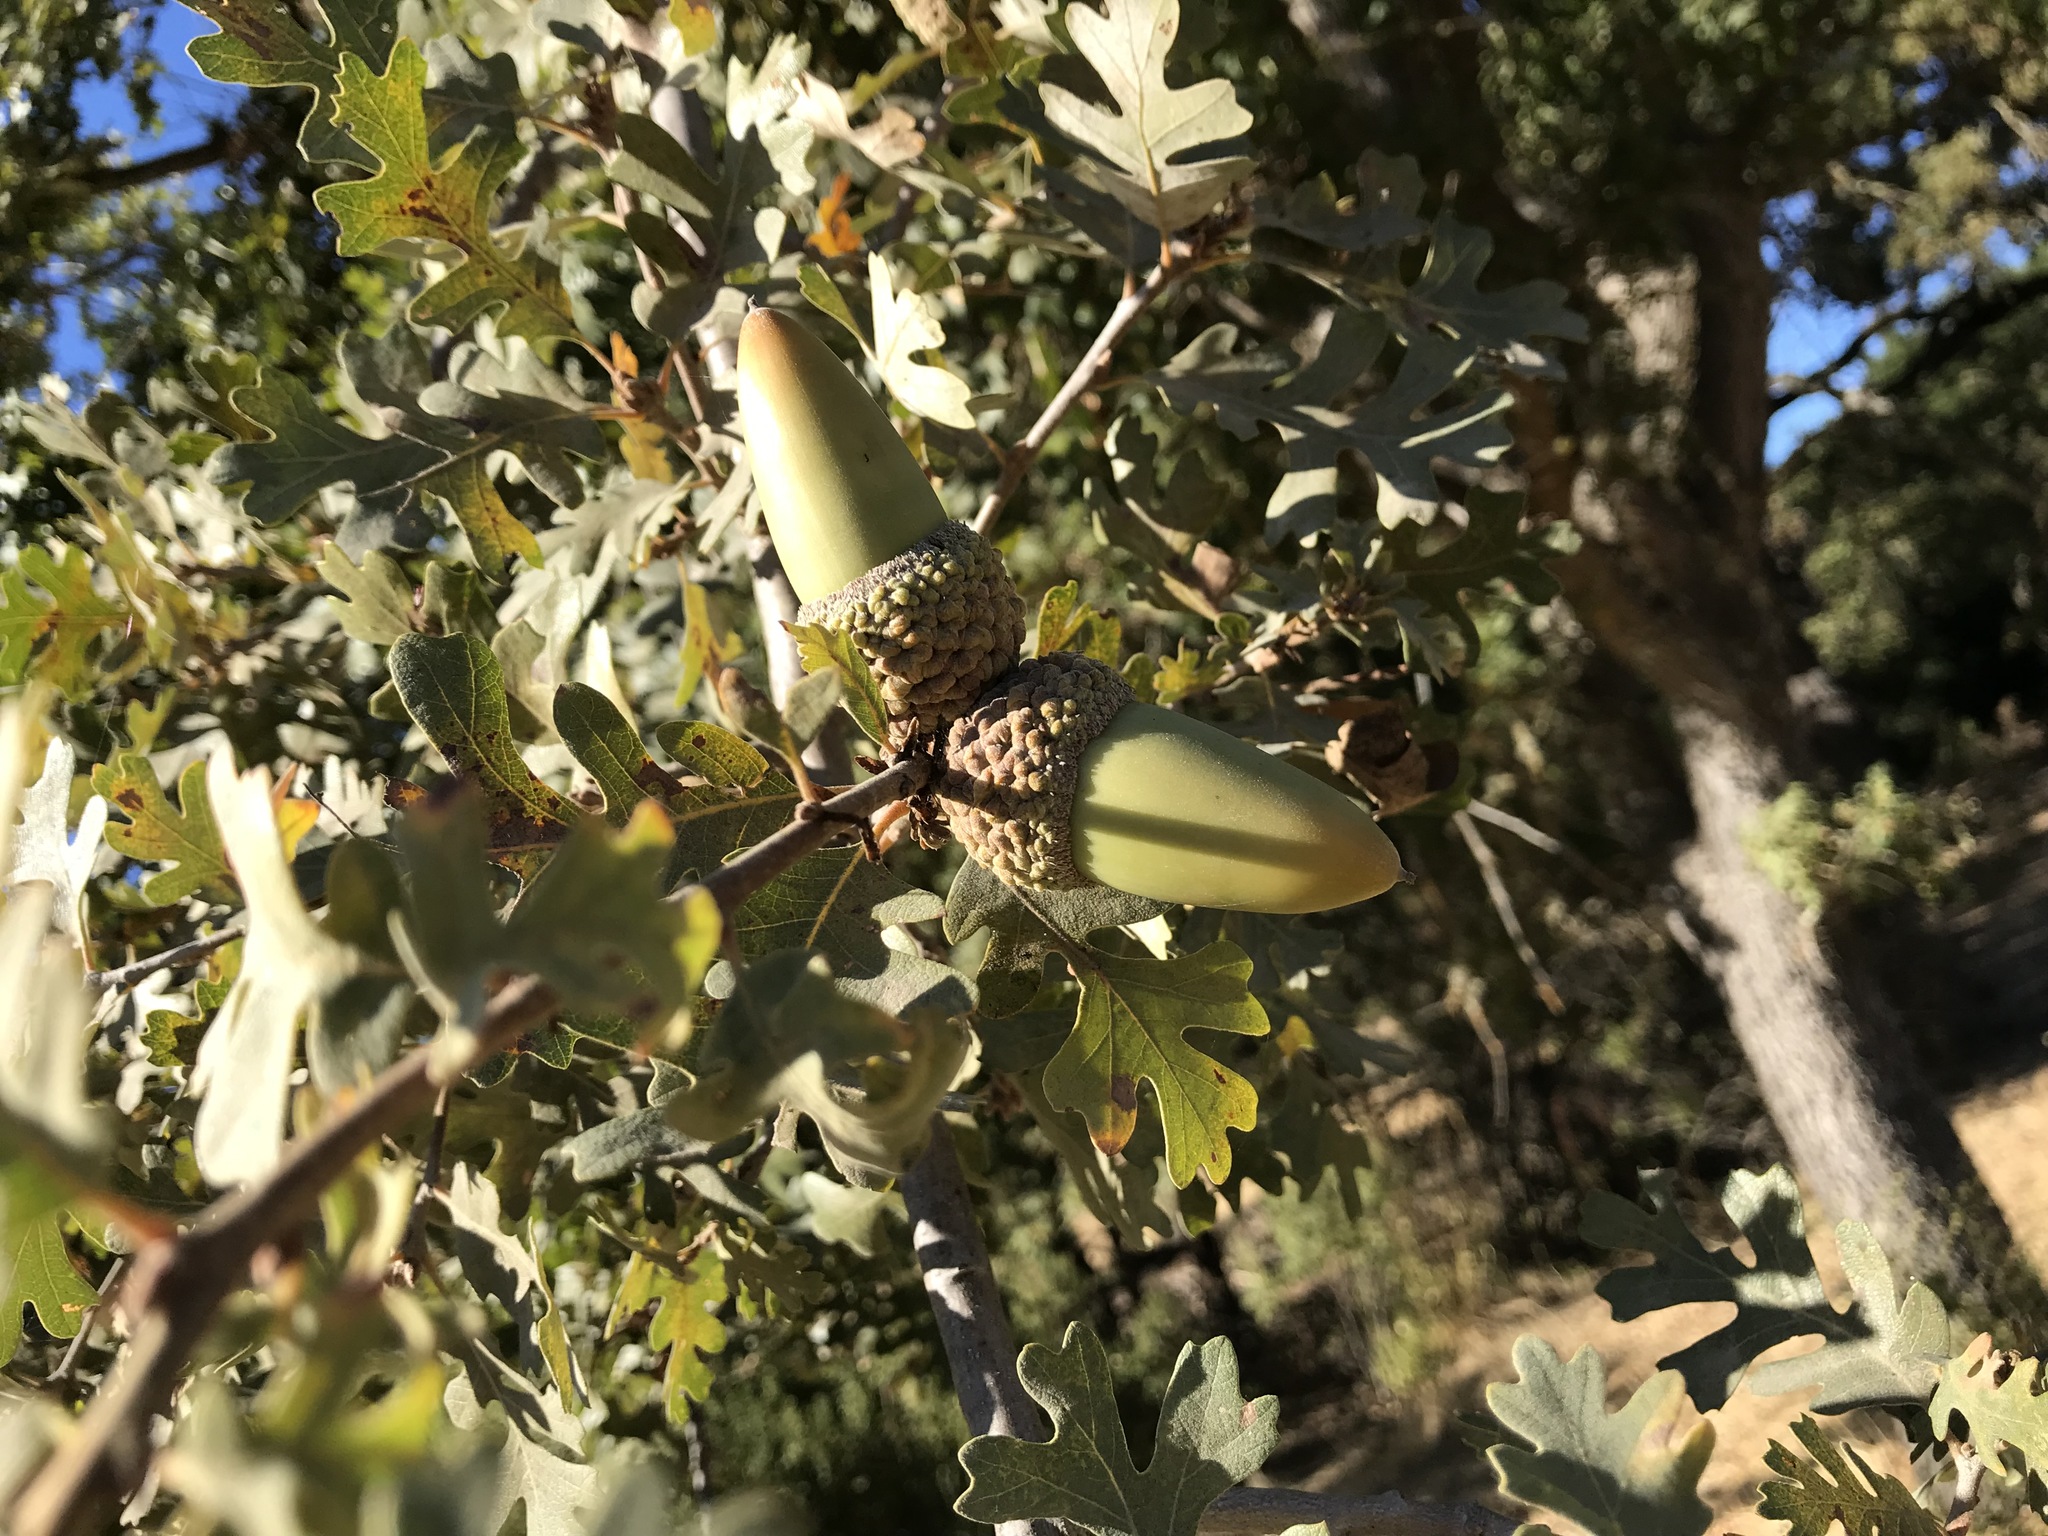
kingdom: Plantae
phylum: Tracheophyta
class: Magnoliopsida
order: Fagales
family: Fagaceae
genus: Quercus
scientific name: Quercus lobata
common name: Valley oak
